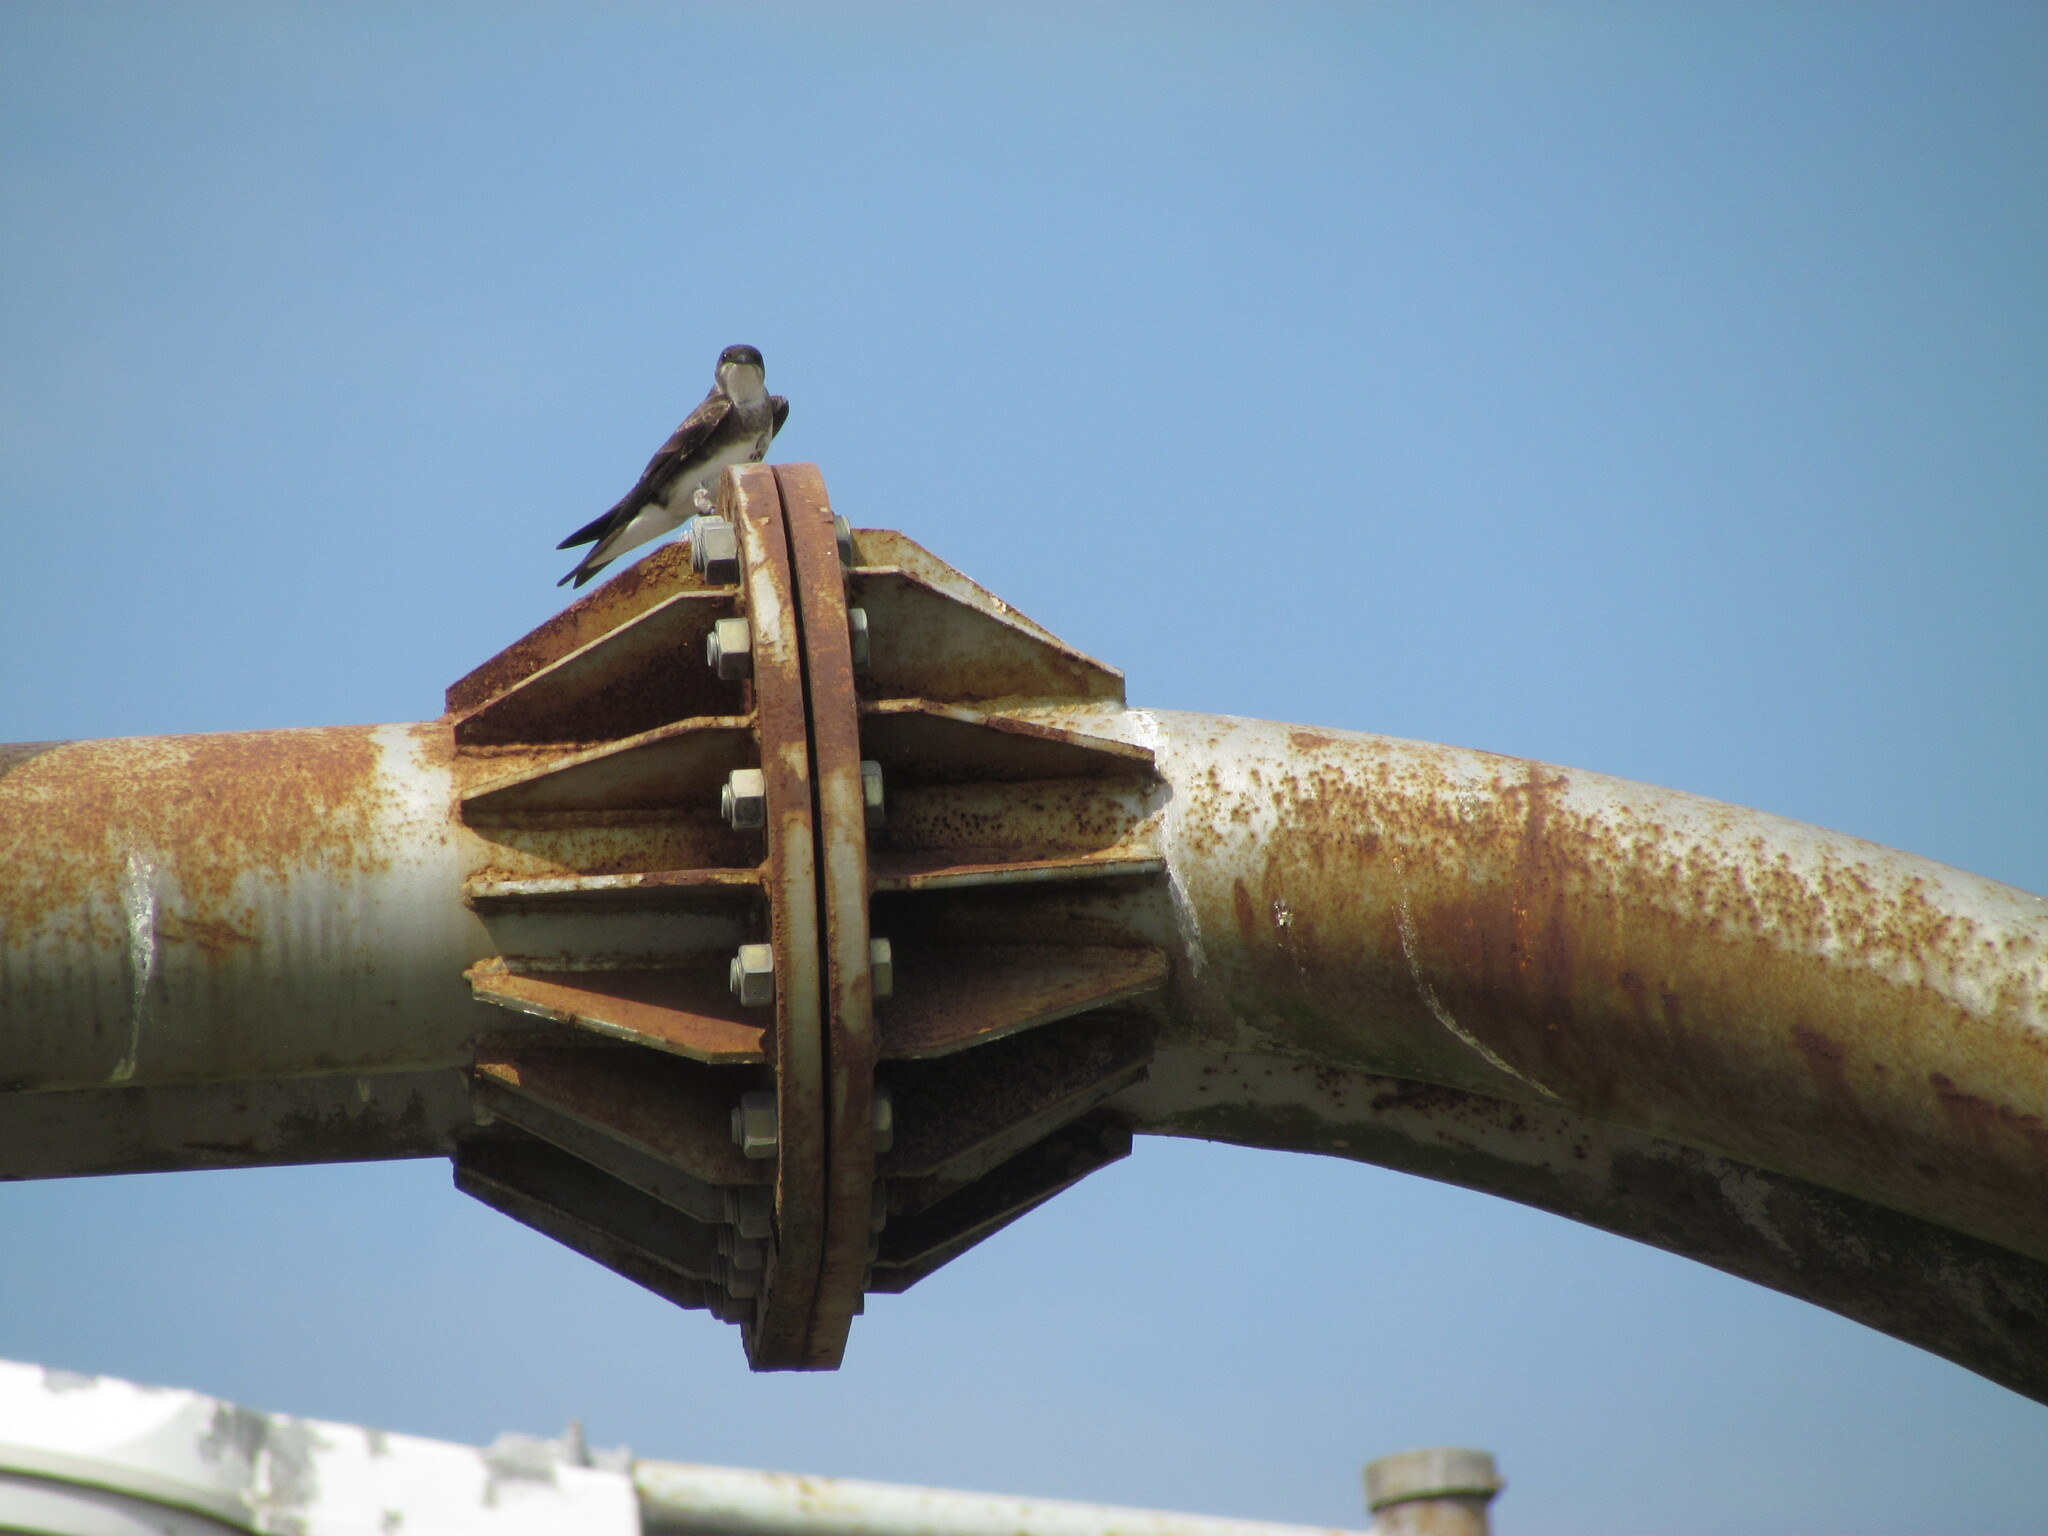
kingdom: Animalia
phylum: Chordata
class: Aves
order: Passeriformes
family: Hirundinidae
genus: Progne
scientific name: Progne tapera
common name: Brown-chested martin
